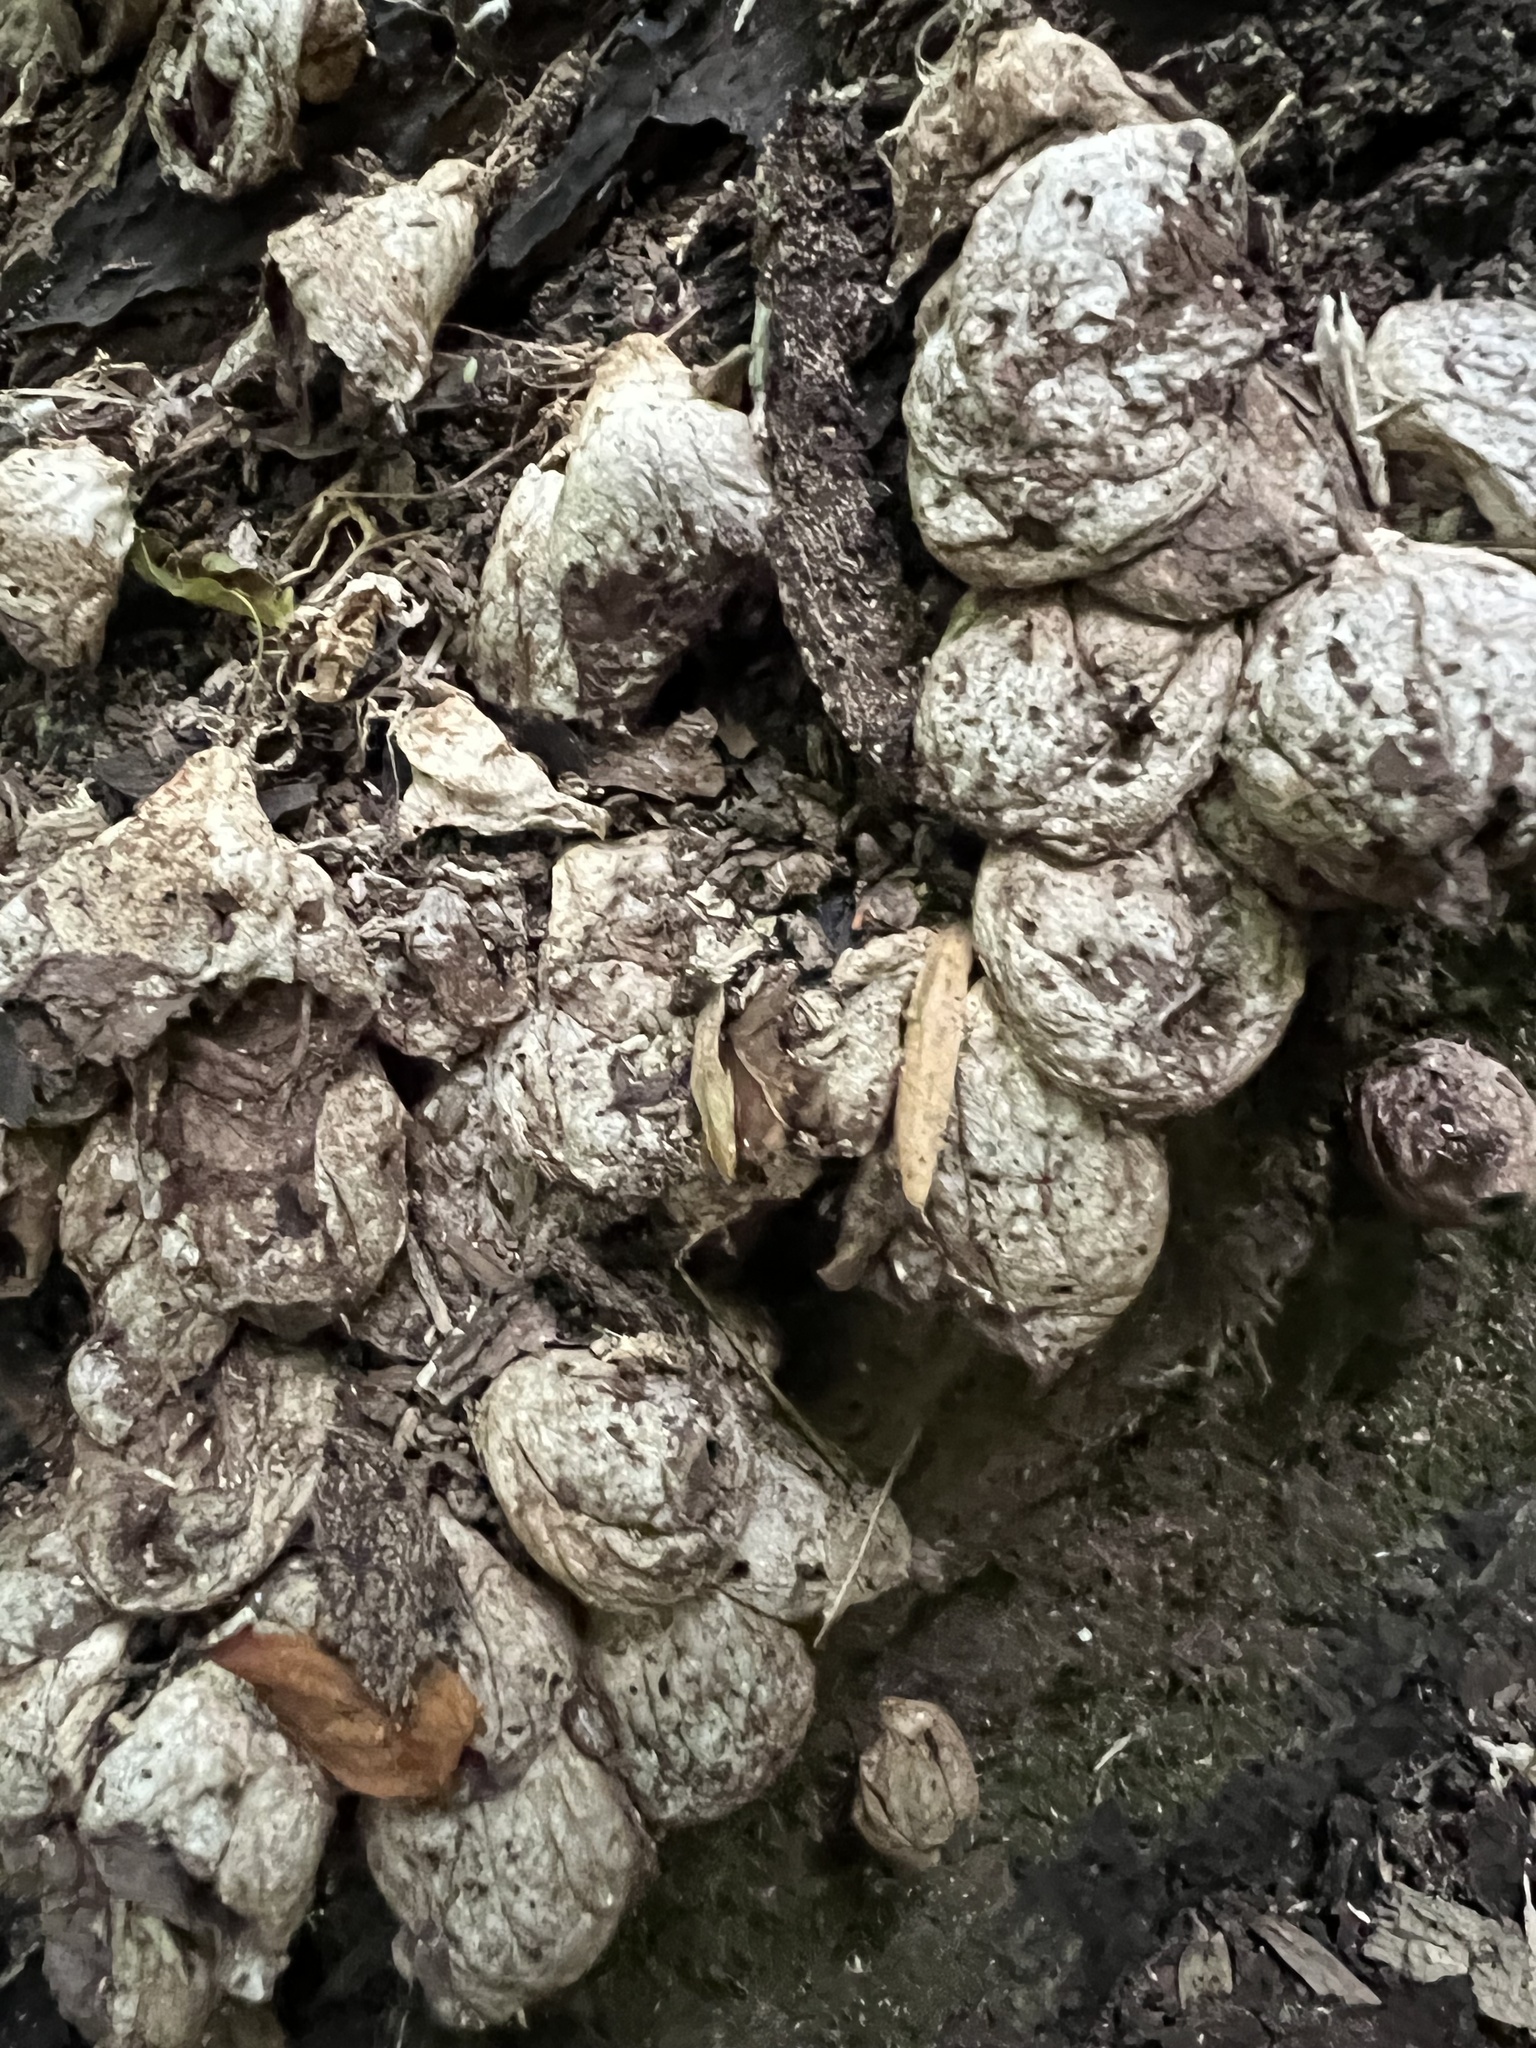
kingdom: Fungi
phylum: Basidiomycota
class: Agaricomycetes
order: Agaricales
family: Lycoperdaceae
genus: Apioperdon
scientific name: Apioperdon pyriforme
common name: Pear-shaped puffball
